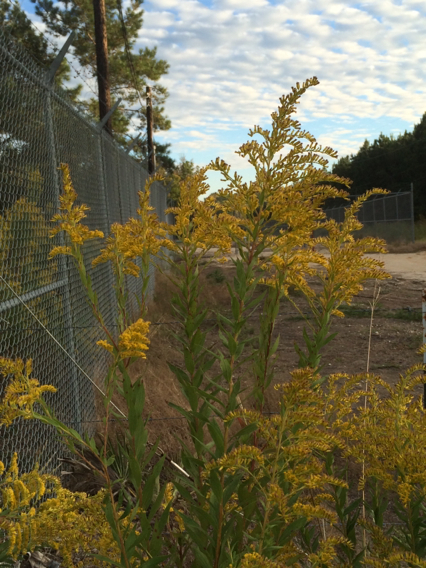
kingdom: Plantae
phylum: Tracheophyta
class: Magnoliopsida
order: Asterales
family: Asteraceae
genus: Solidago
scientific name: Solidago altissima
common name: Late goldenrod
